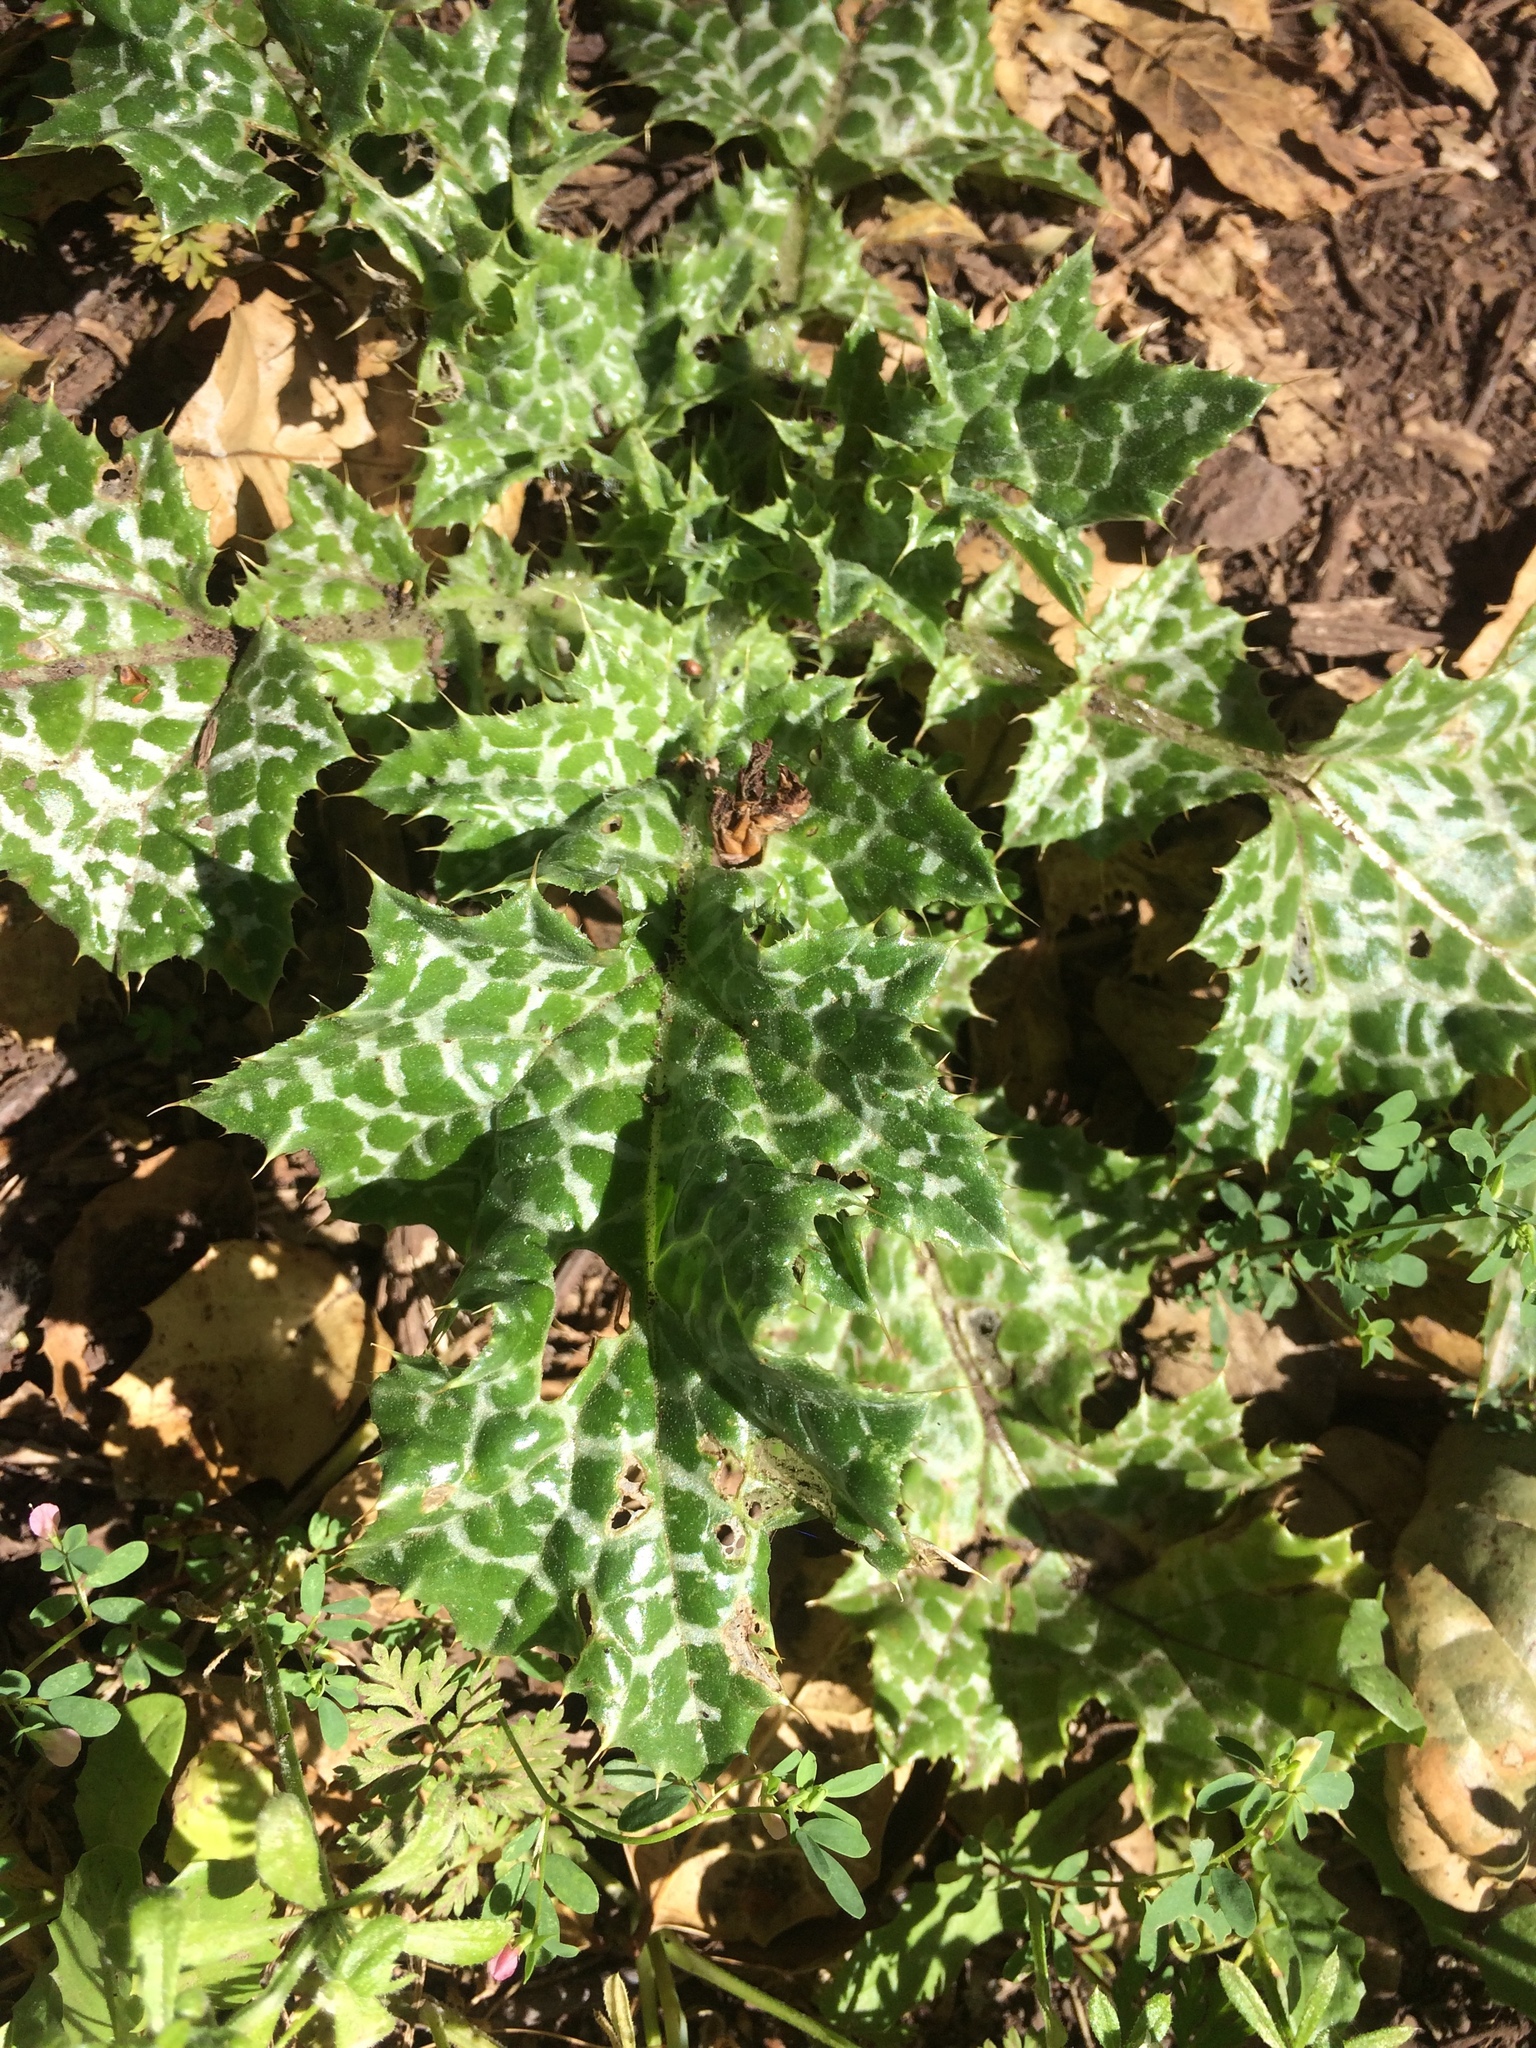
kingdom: Plantae
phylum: Tracheophyta
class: Magnoliopsida
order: Asterales
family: Asteraceae
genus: Silybum
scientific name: Silybum marianum
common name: Milk thistle
